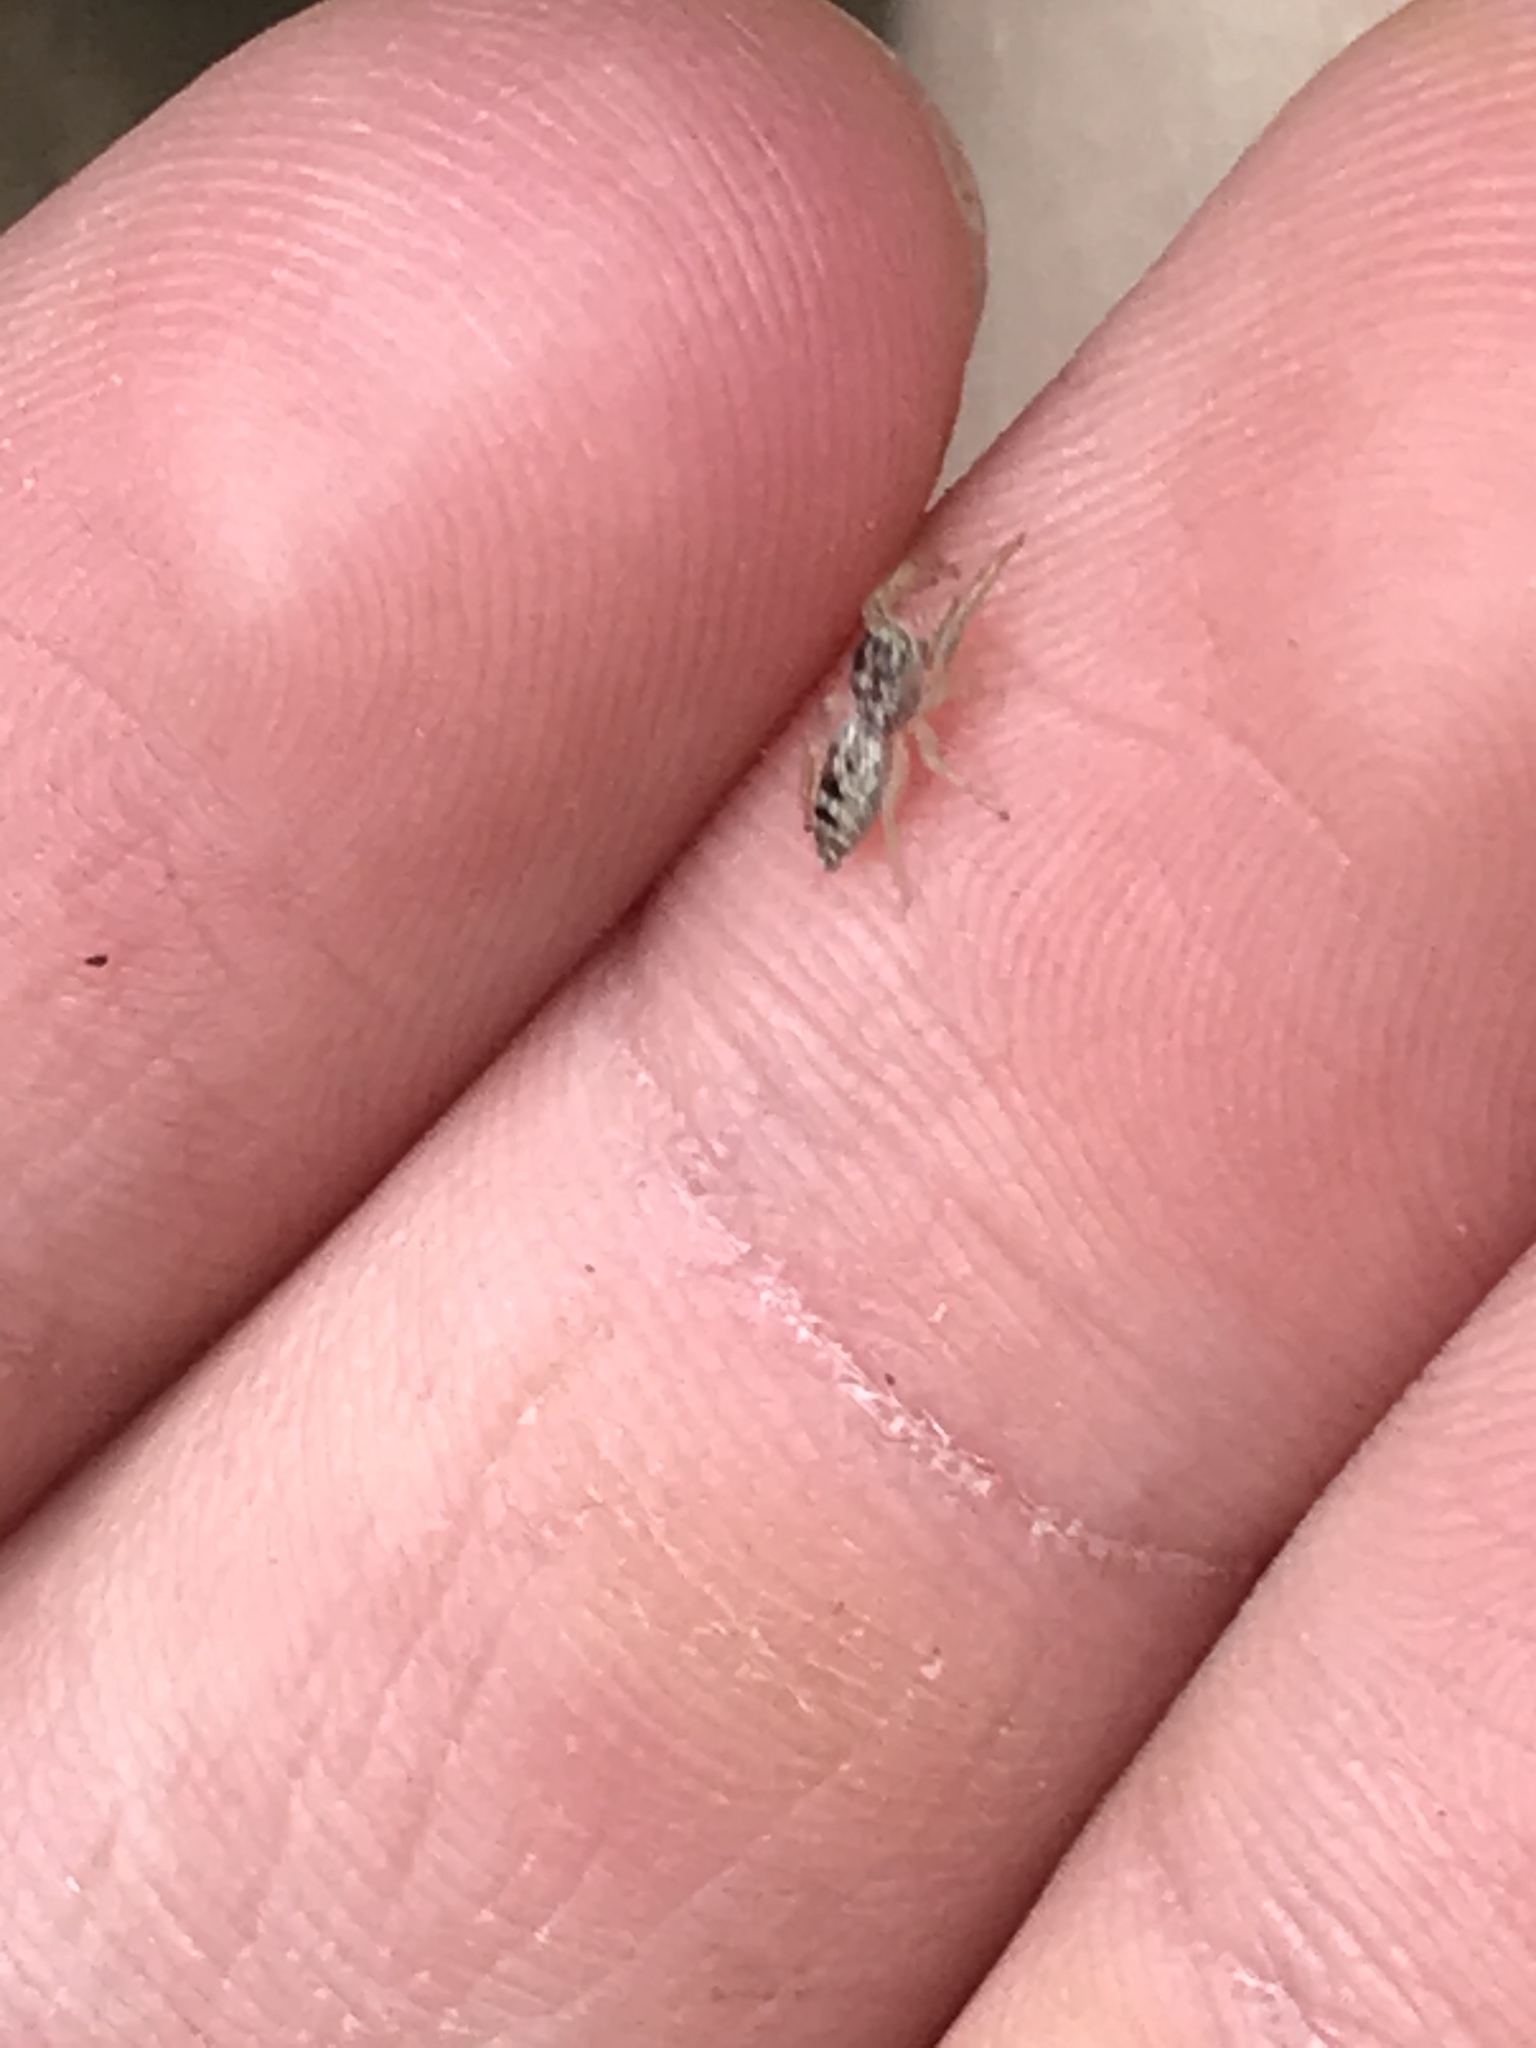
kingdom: Animalia
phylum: Arthropoda
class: Arachnida
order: Araneae
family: Salticidae
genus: Hentzia
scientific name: Hentzia
